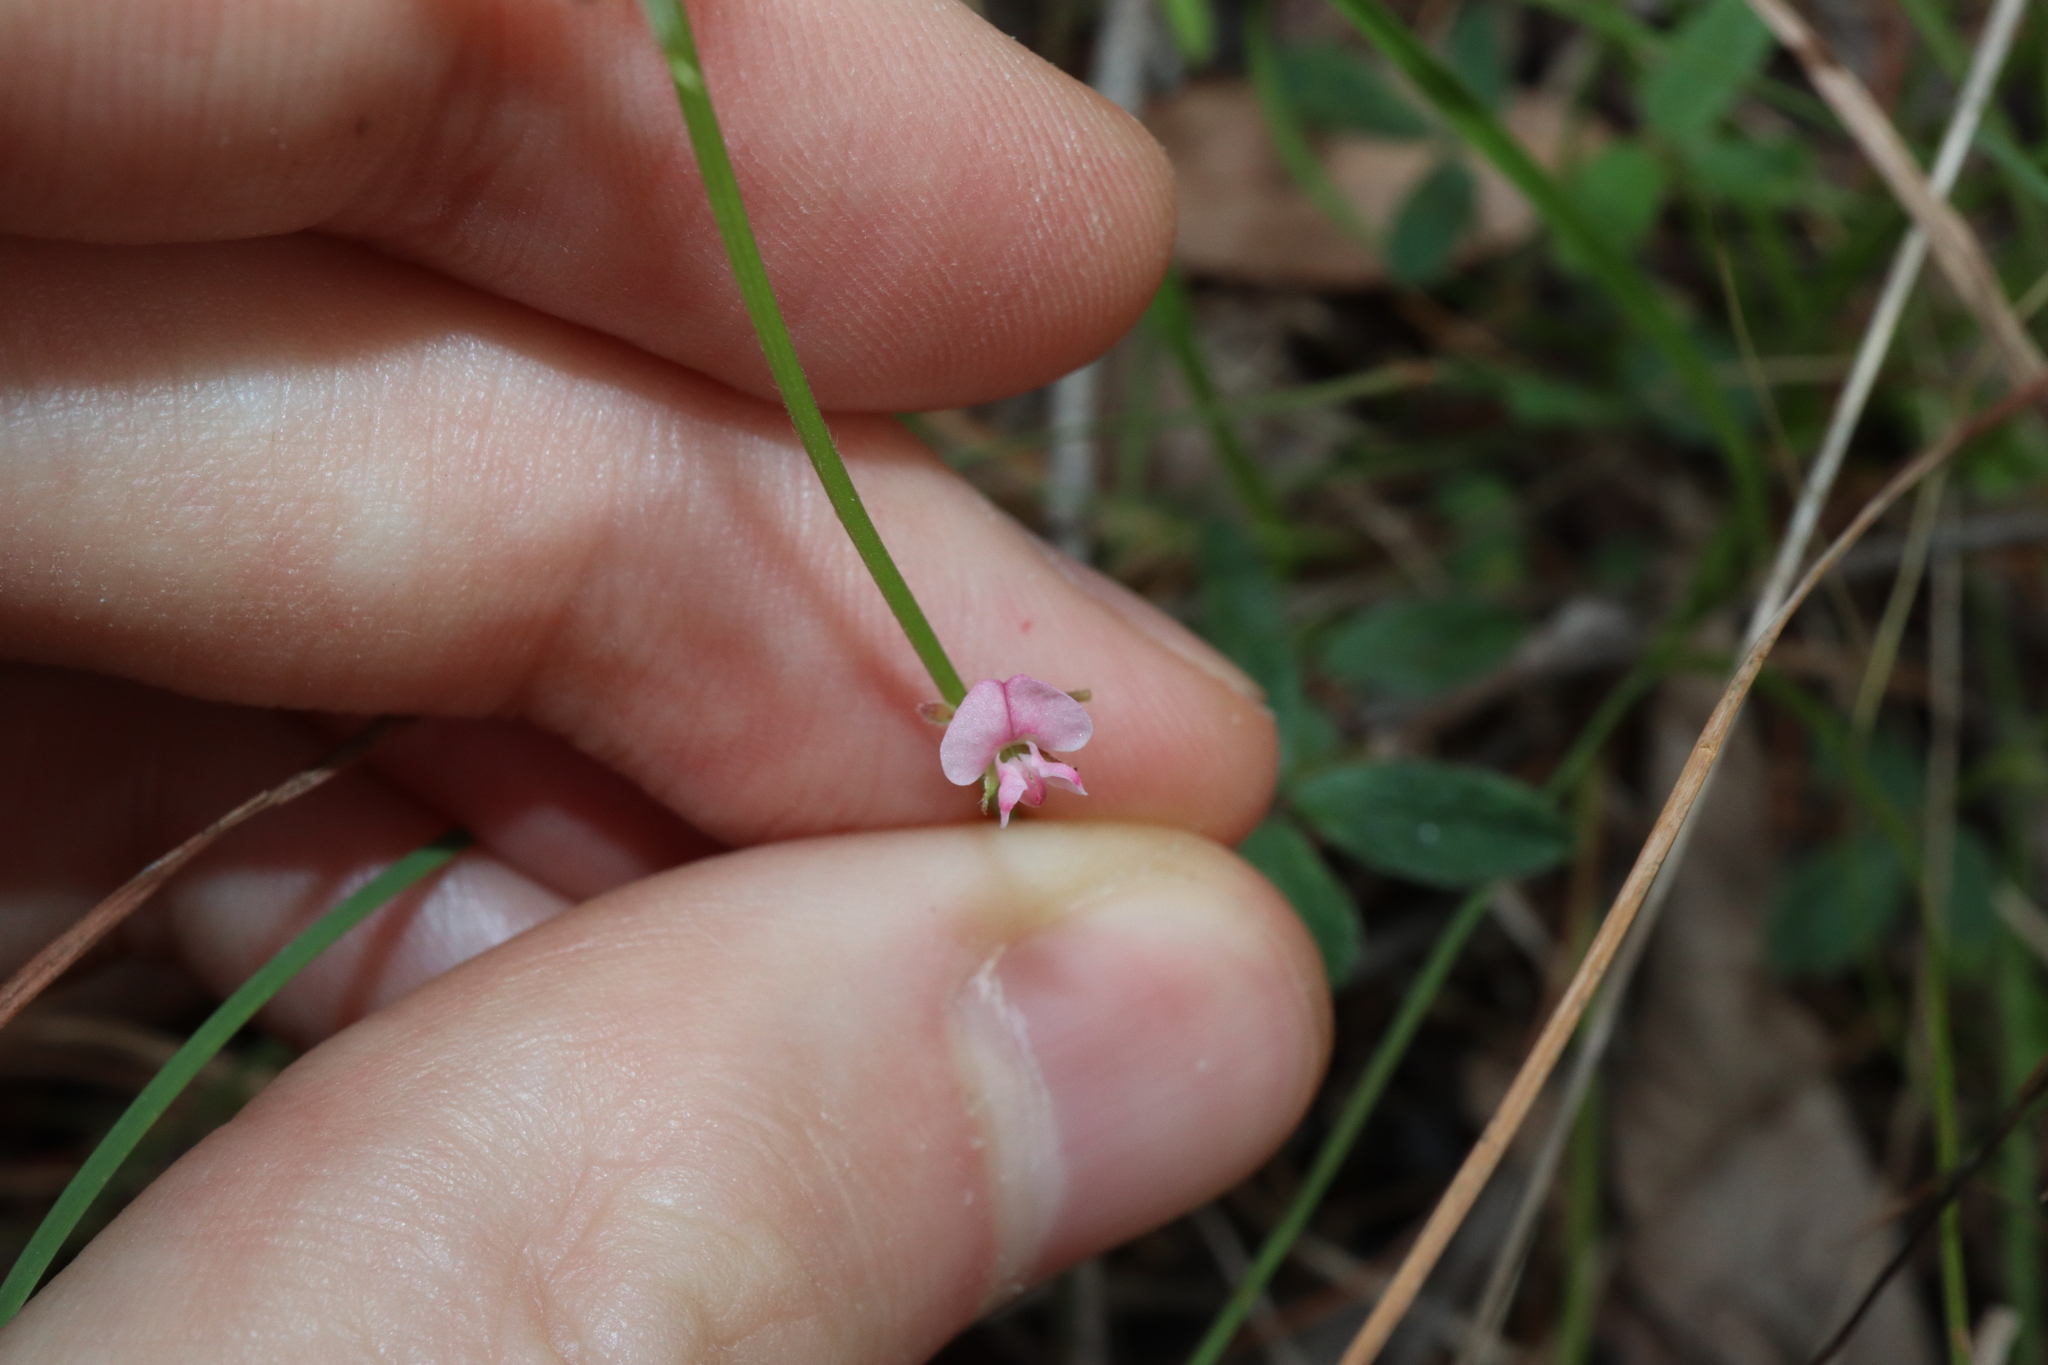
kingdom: Plantae
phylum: Tracheophyta
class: Magnoliopsida
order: Fabales
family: Fabaceae
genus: Grona
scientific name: Grona varians
